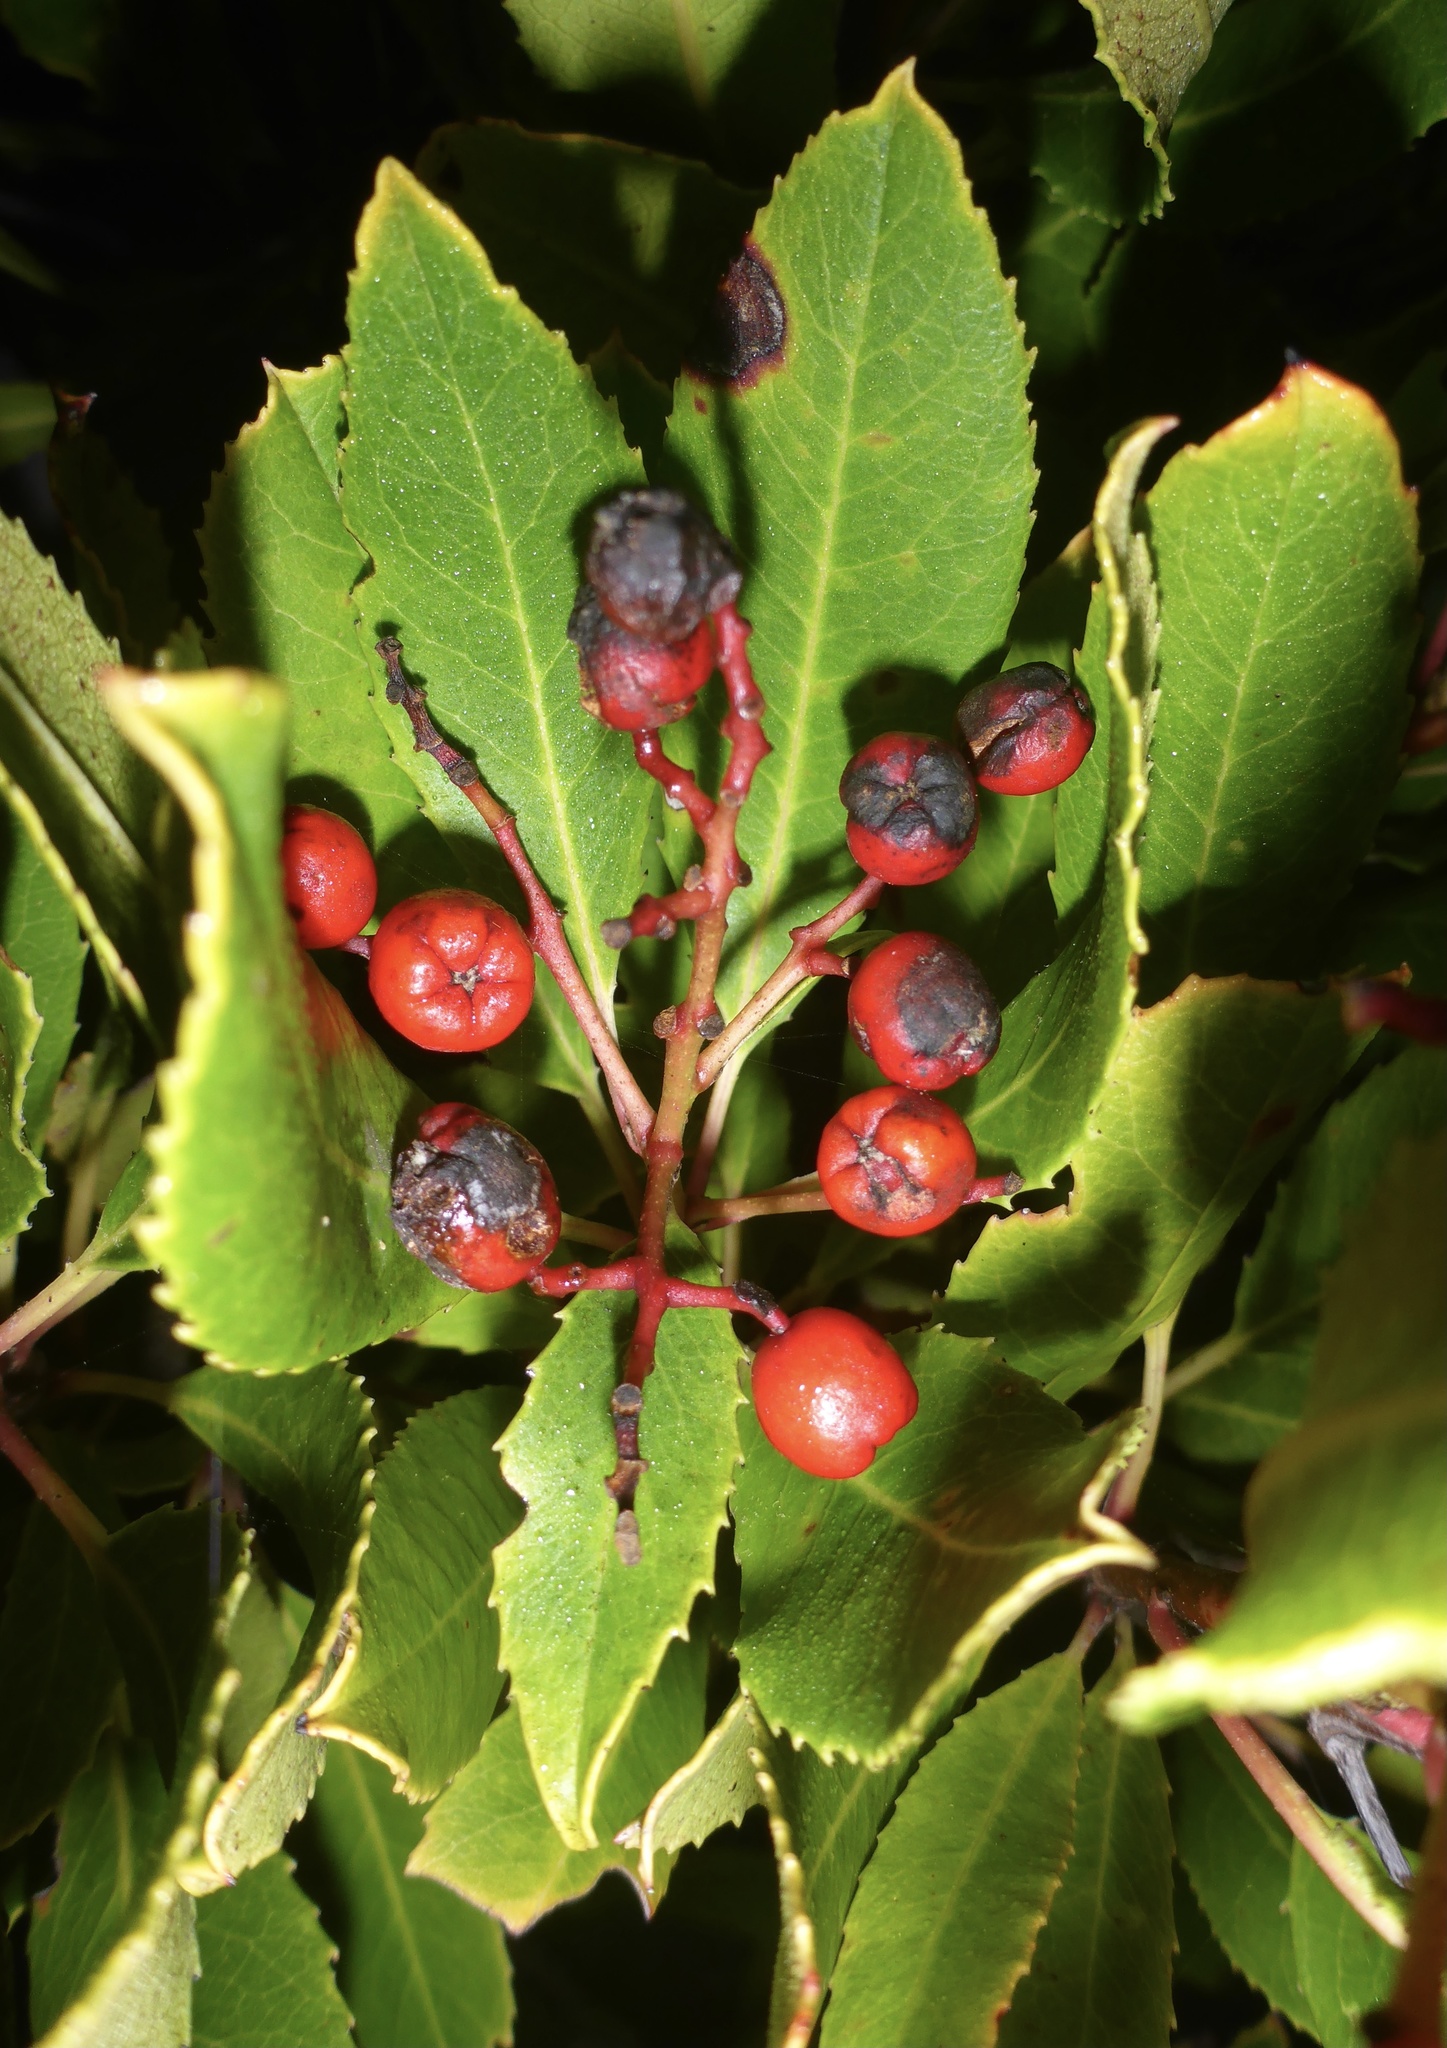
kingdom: Plantae
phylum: Tracheophyta
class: Magnoliopsida
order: Rosales
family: Rosaceae
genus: Heteromeles
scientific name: Heteromeles arbutifolia
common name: California-holly
